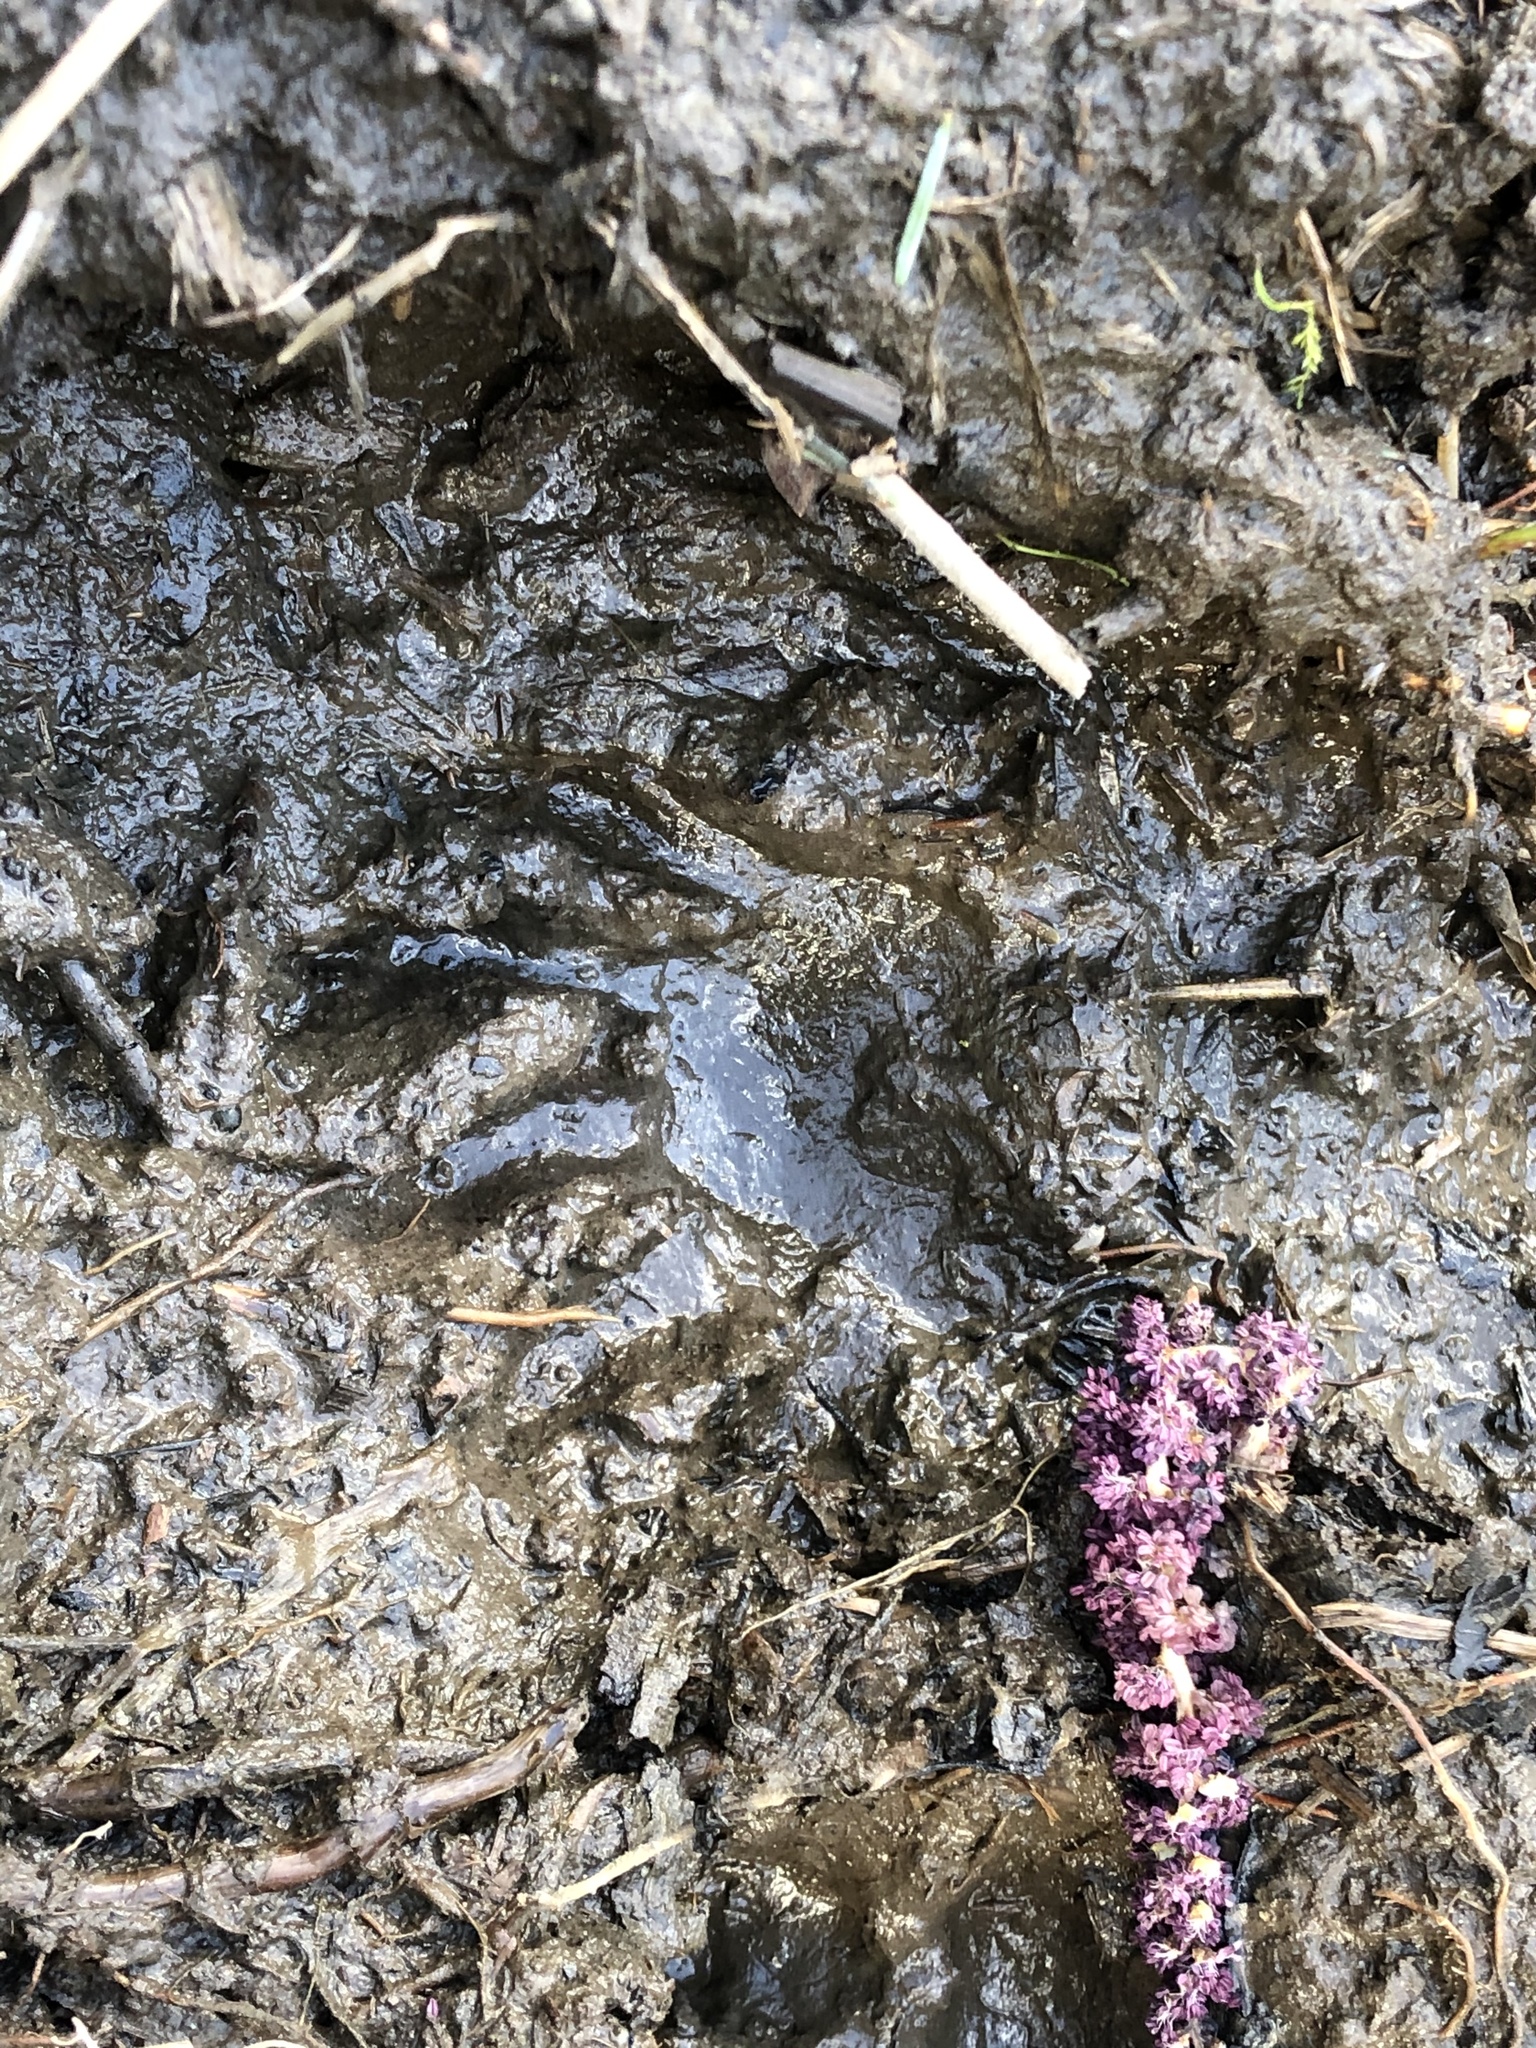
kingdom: Animalia
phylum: Chordata
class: Mammalia
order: Carnivora
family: Procyonidae
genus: Procyon
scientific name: Procyon lotor
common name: Raccoon
